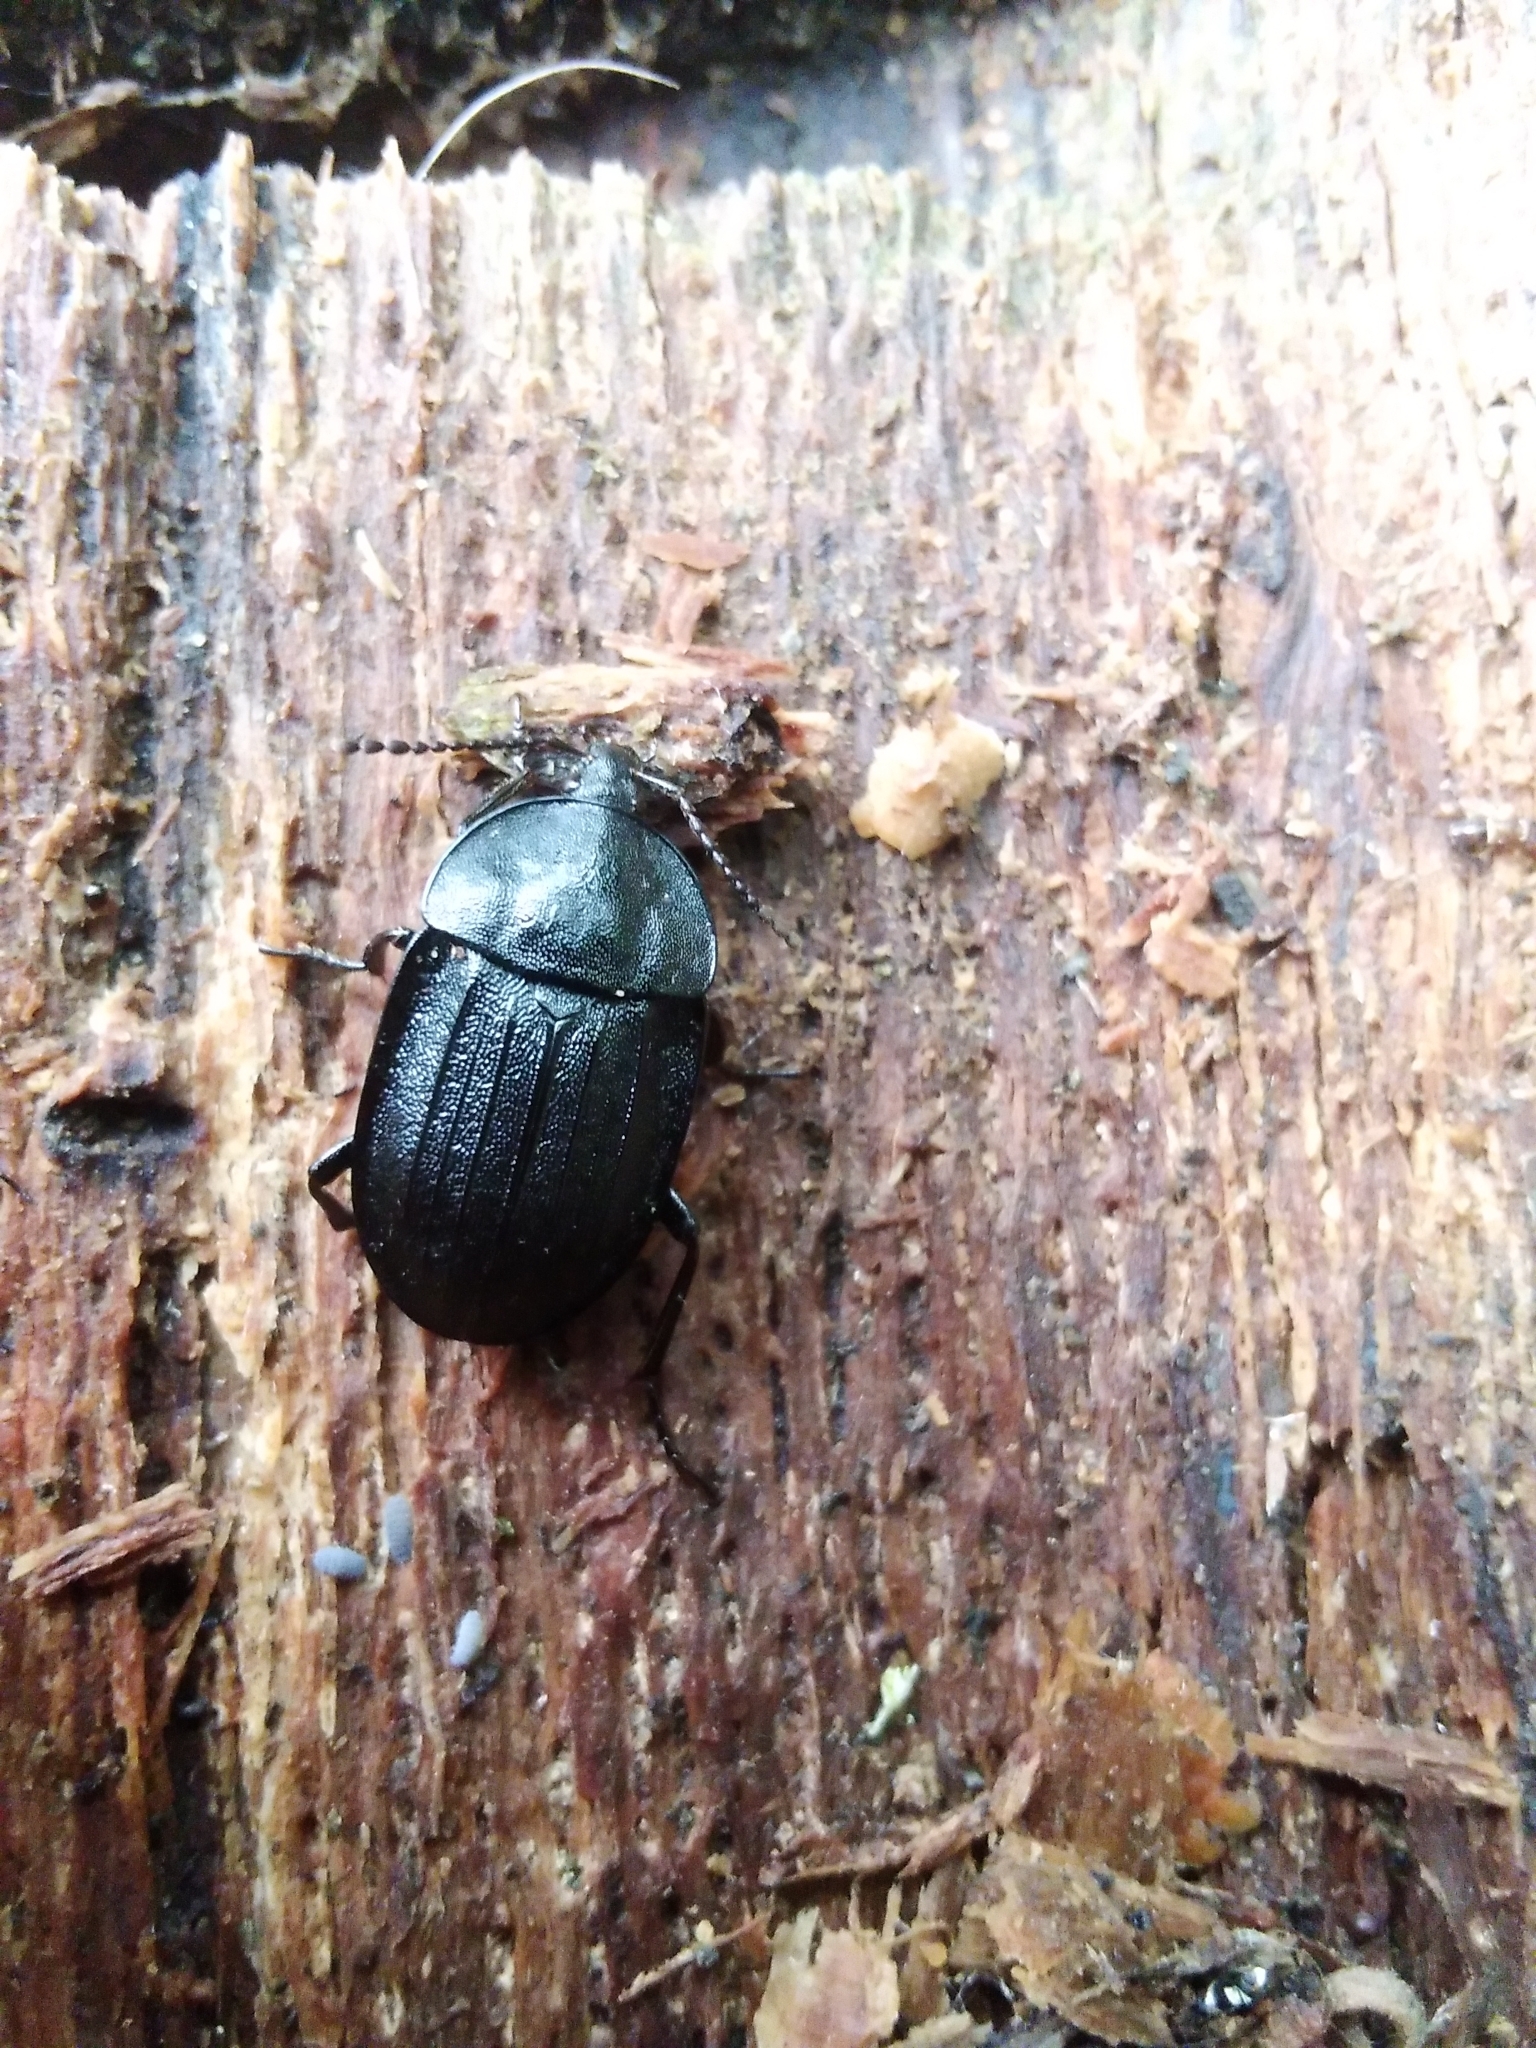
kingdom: Animalia
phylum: Arthropoda
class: Insecta
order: Coleoptera
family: Staphylinidae
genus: Silpha
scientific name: Silpha atrata
